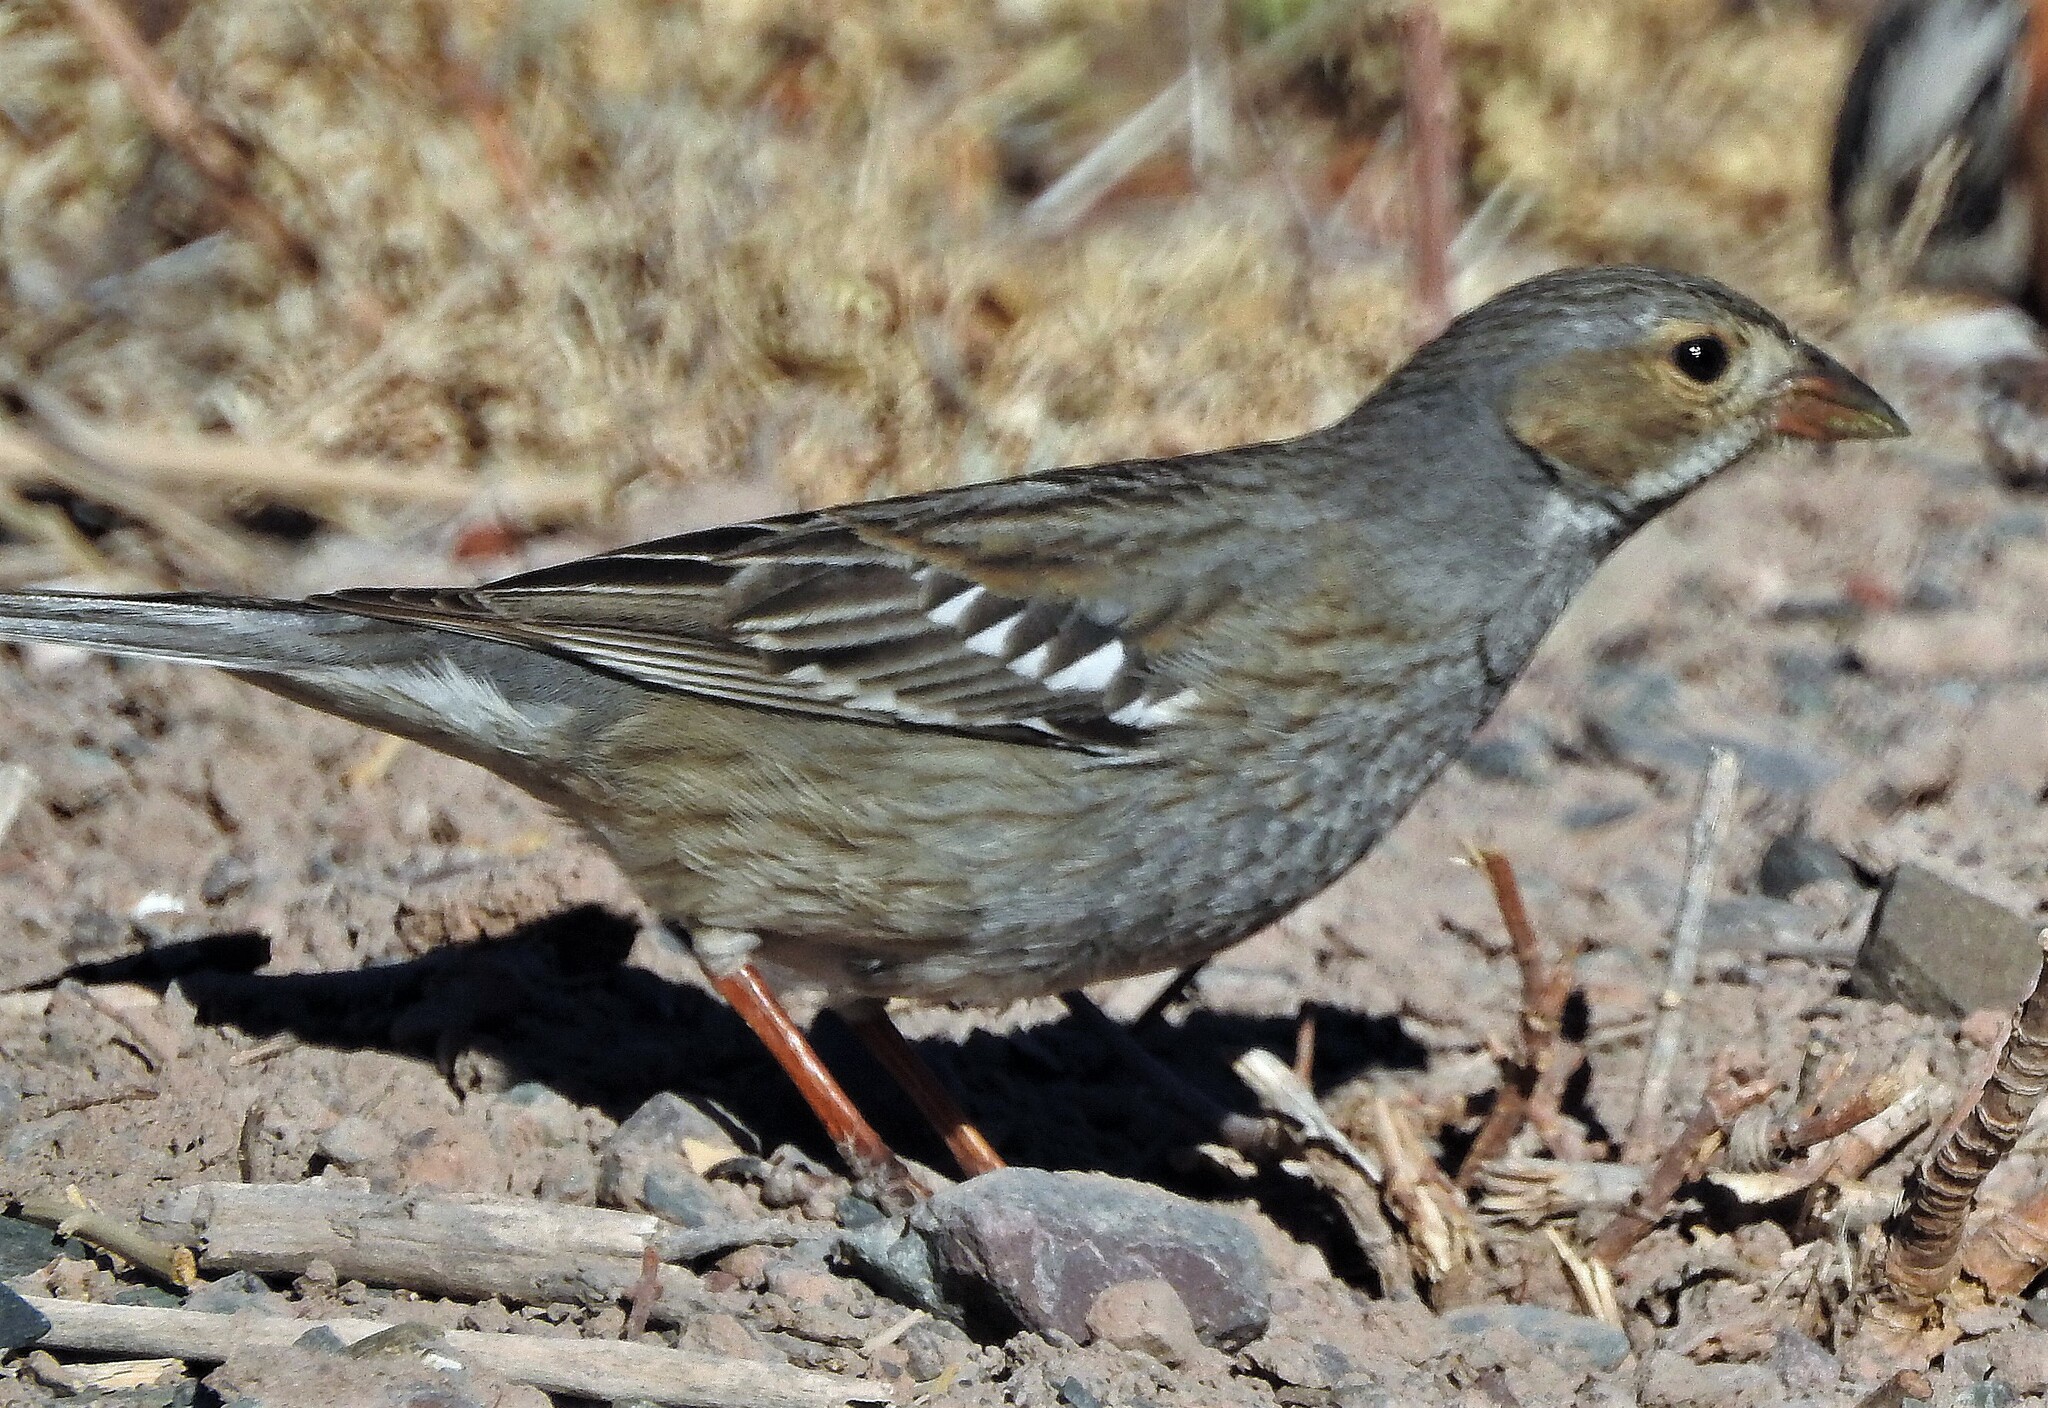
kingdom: Animalia
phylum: Chordata
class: Aves
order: Passeriformes
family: Thraupidae
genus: Rhopospina
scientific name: Rhopospina fruticeti
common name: Mourning sierra finch
